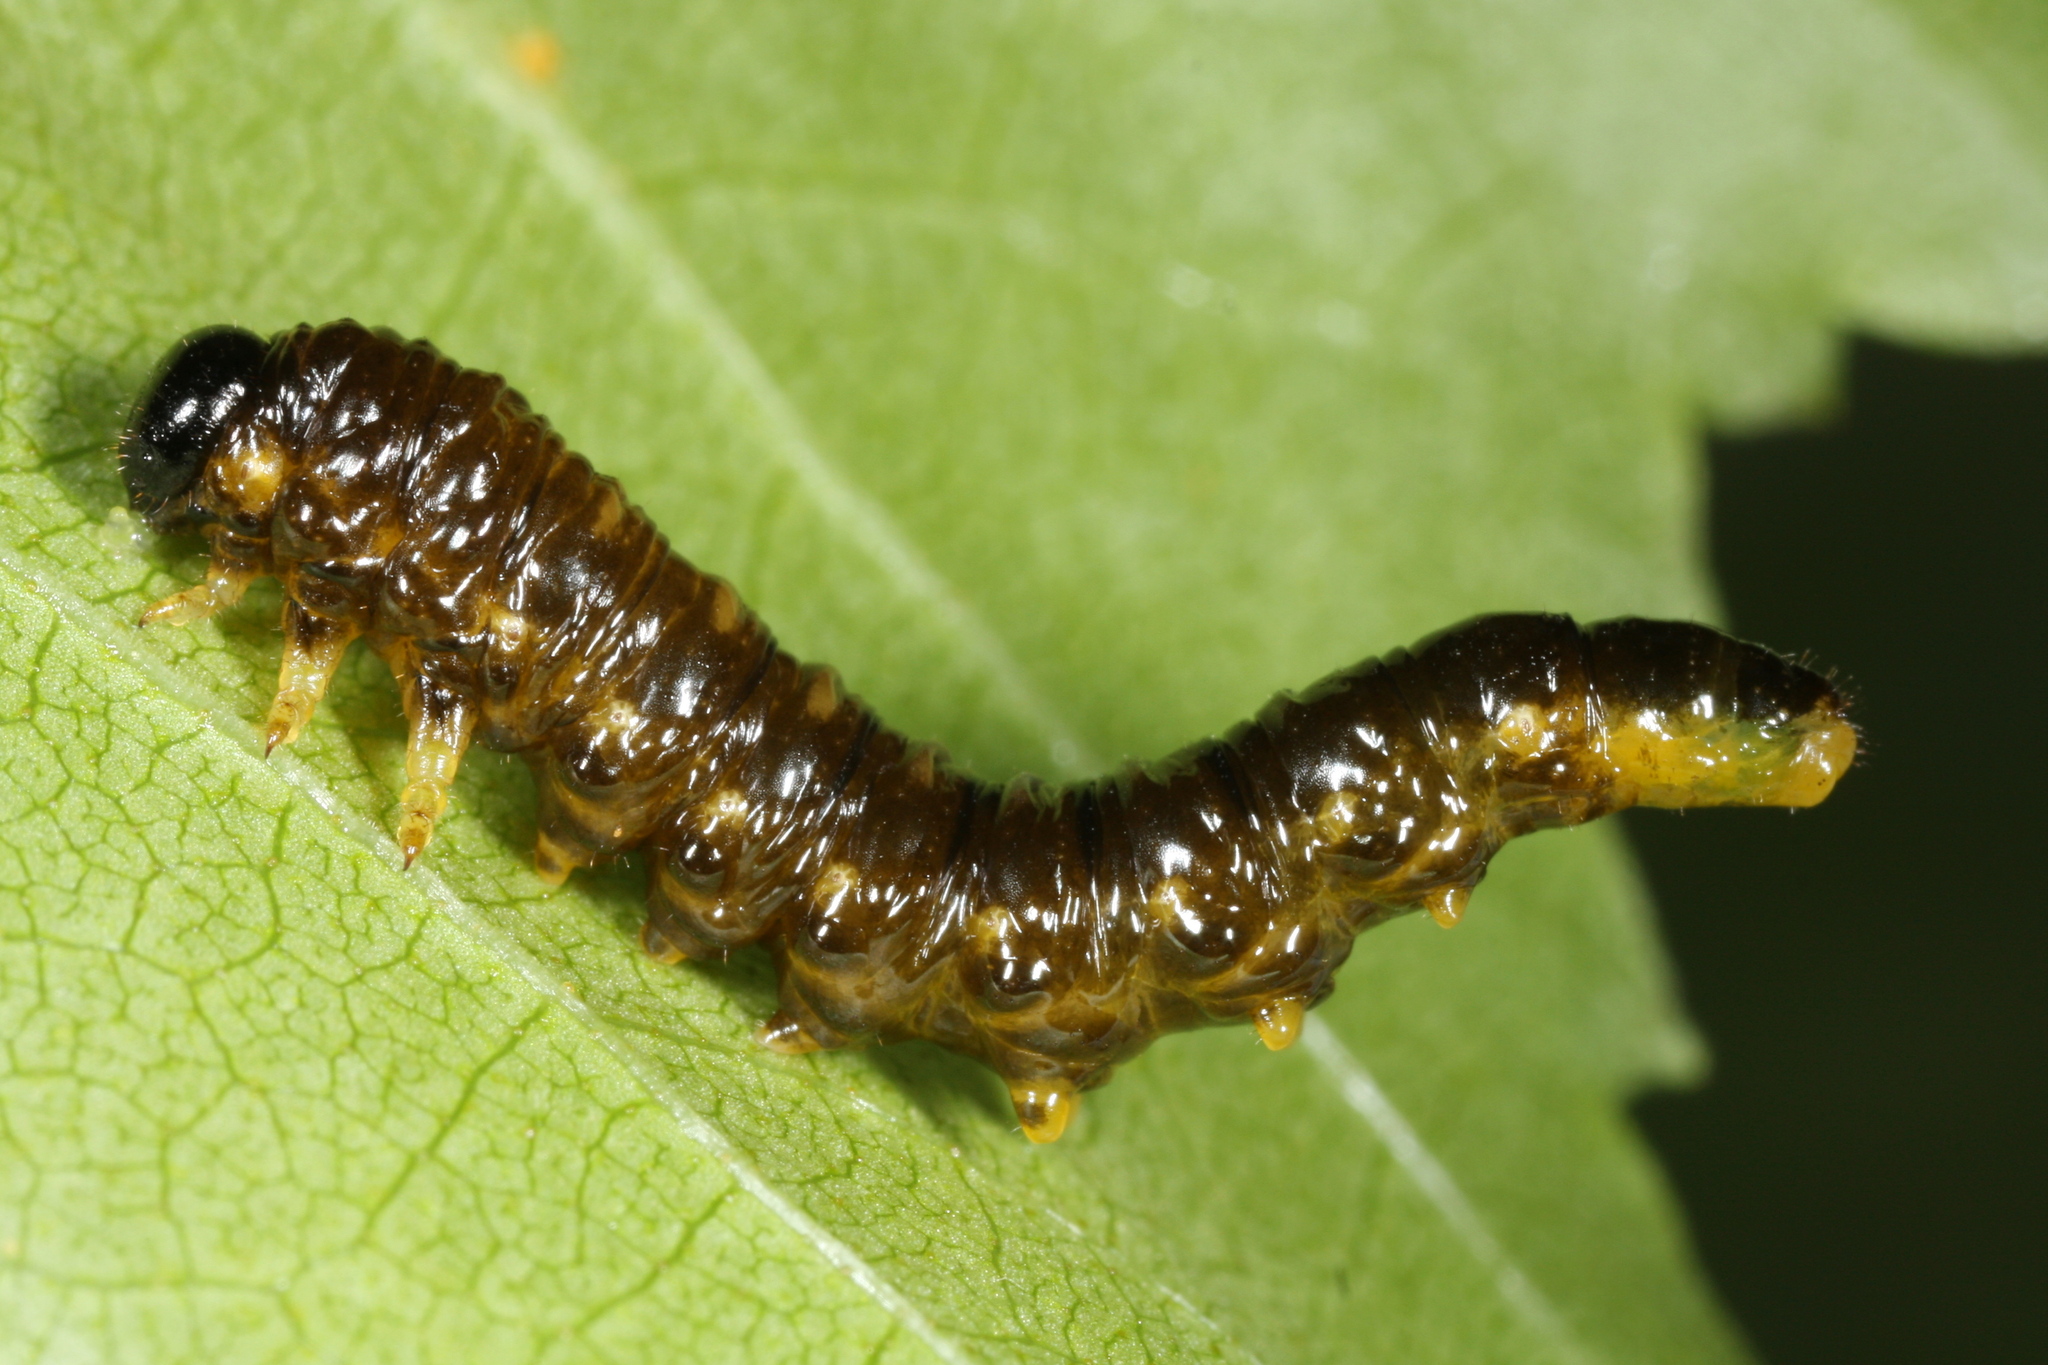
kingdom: Animalia
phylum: Arthropoda
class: Insecta
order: Hymenoptera
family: Tenthredinidae
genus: Craesus
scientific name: Craesus latipes
